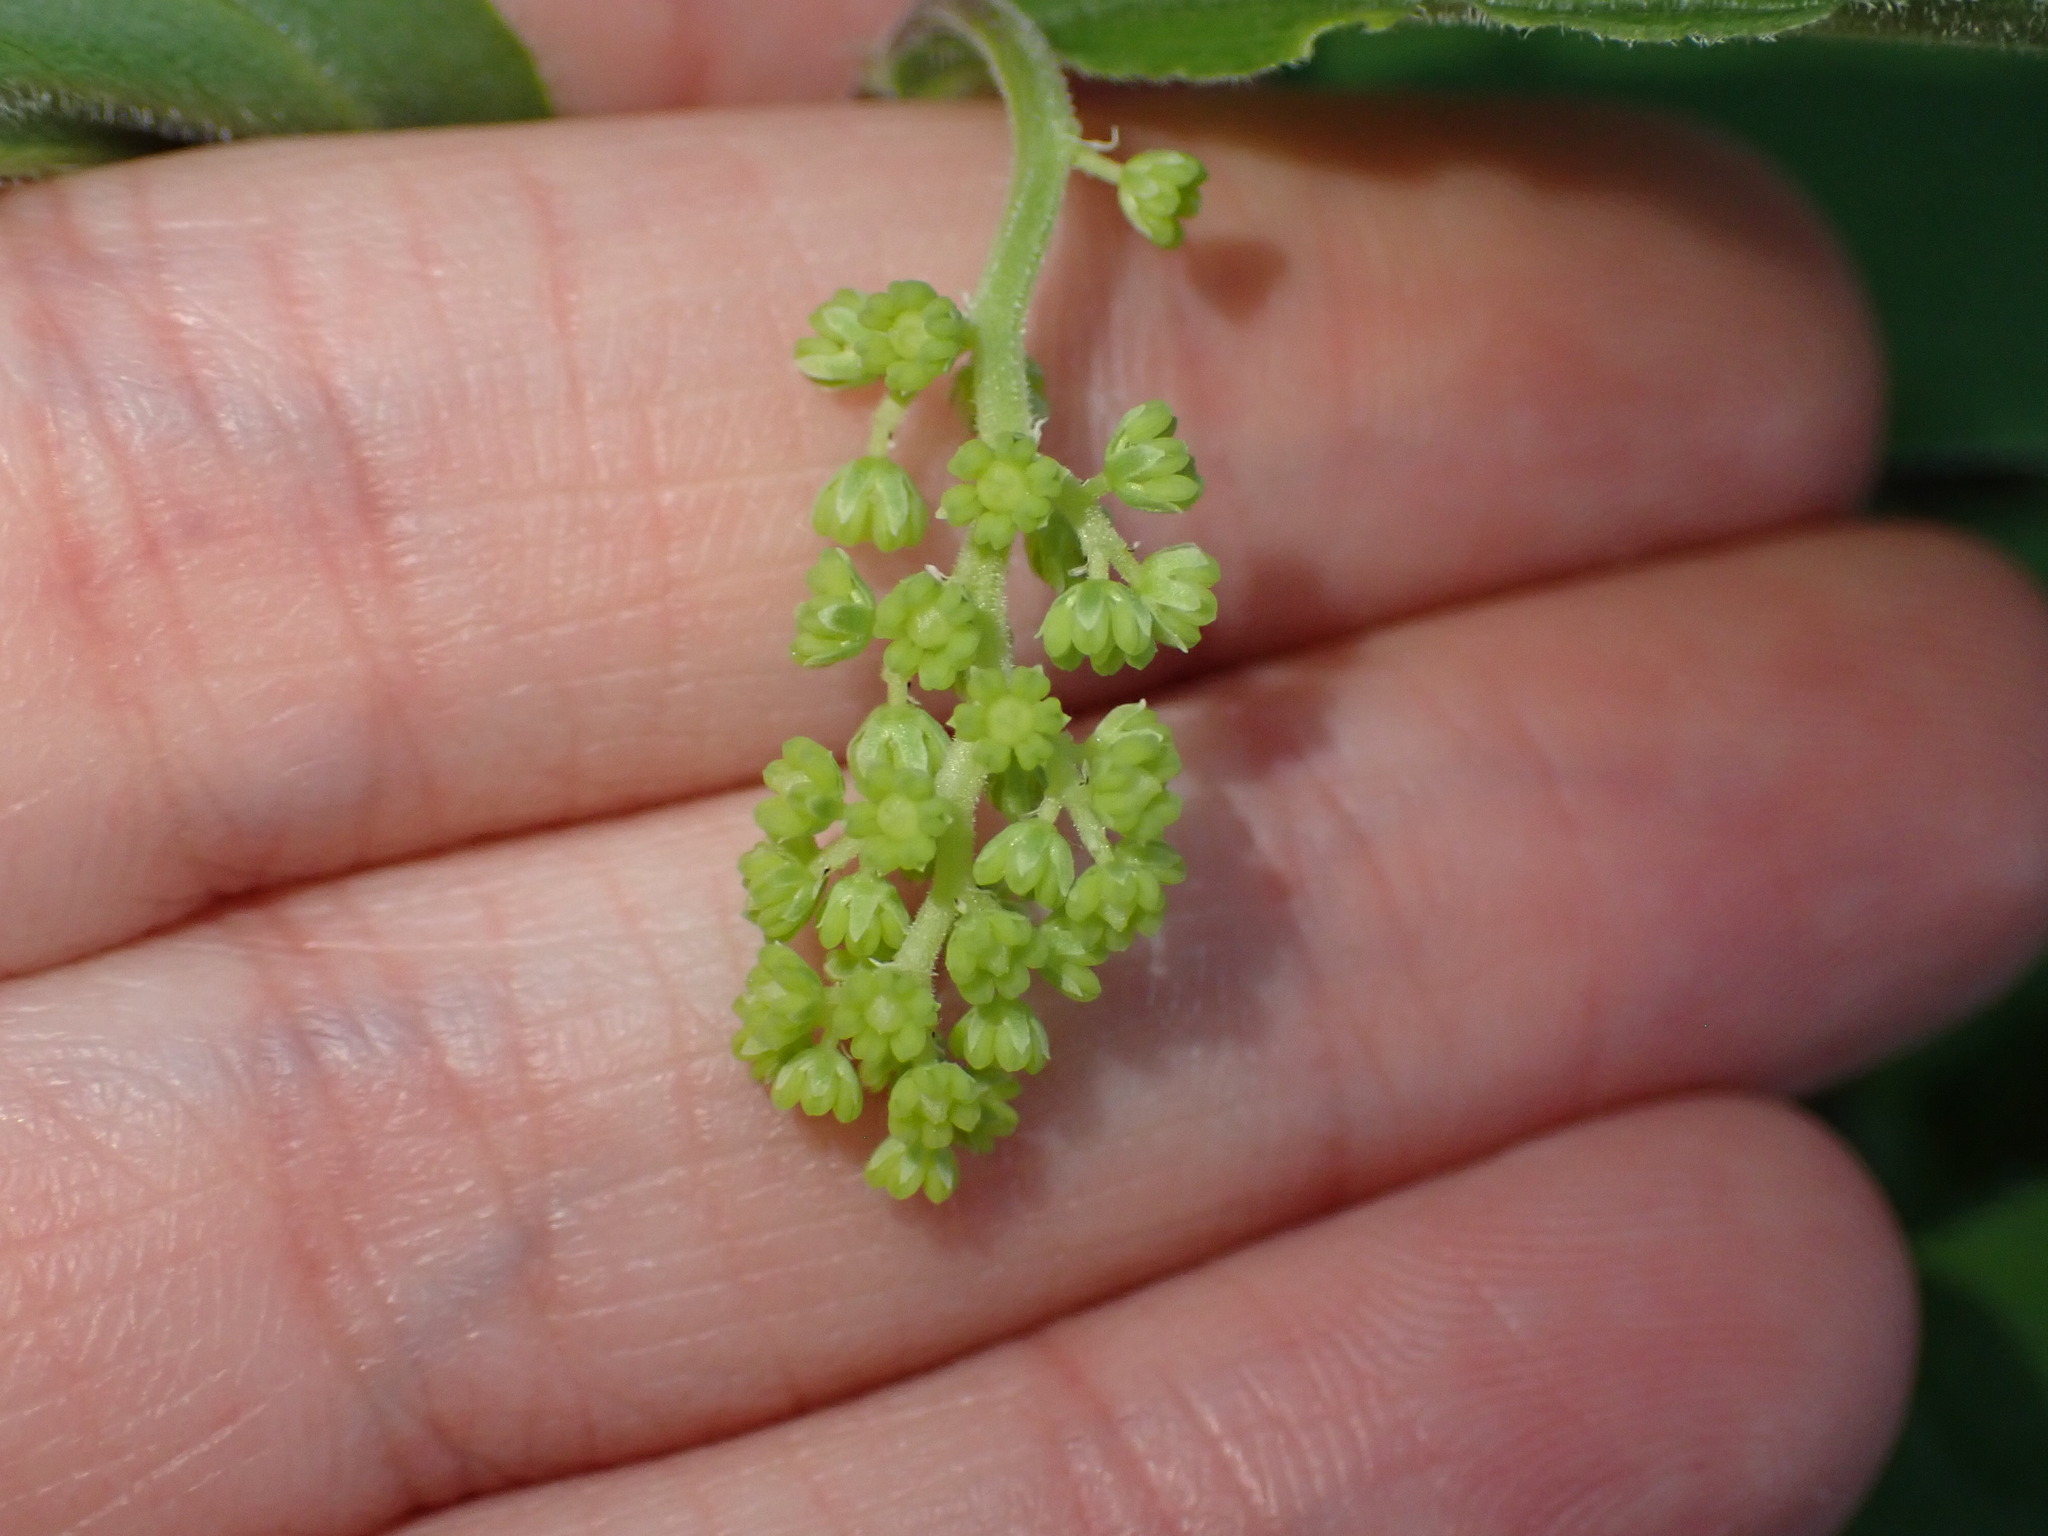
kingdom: Plantae
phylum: Tracheophyta
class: Liliopsida
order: Asparagales
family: Asparagaceae
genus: Maianthemum
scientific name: Maianthemum racemosum
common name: False spikenard
